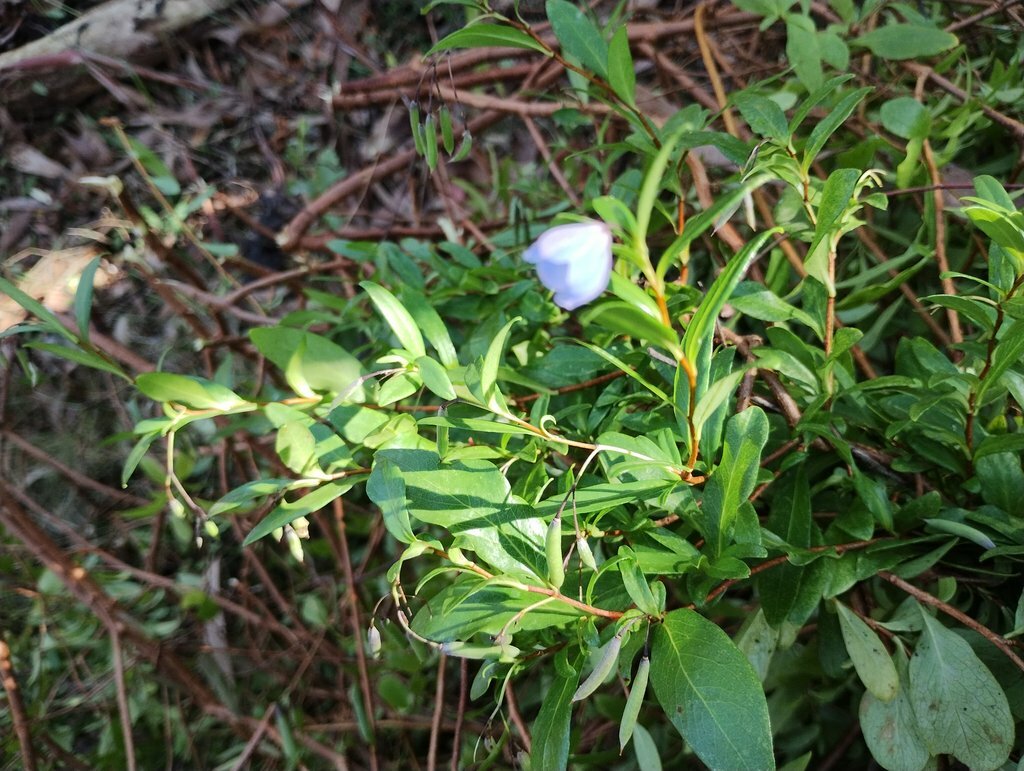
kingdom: Plantae
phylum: Tracheophyta
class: Magnoliopsida
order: Apiales
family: Pittosporaceae
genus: Billardiera
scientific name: Billardiera fusiformis
